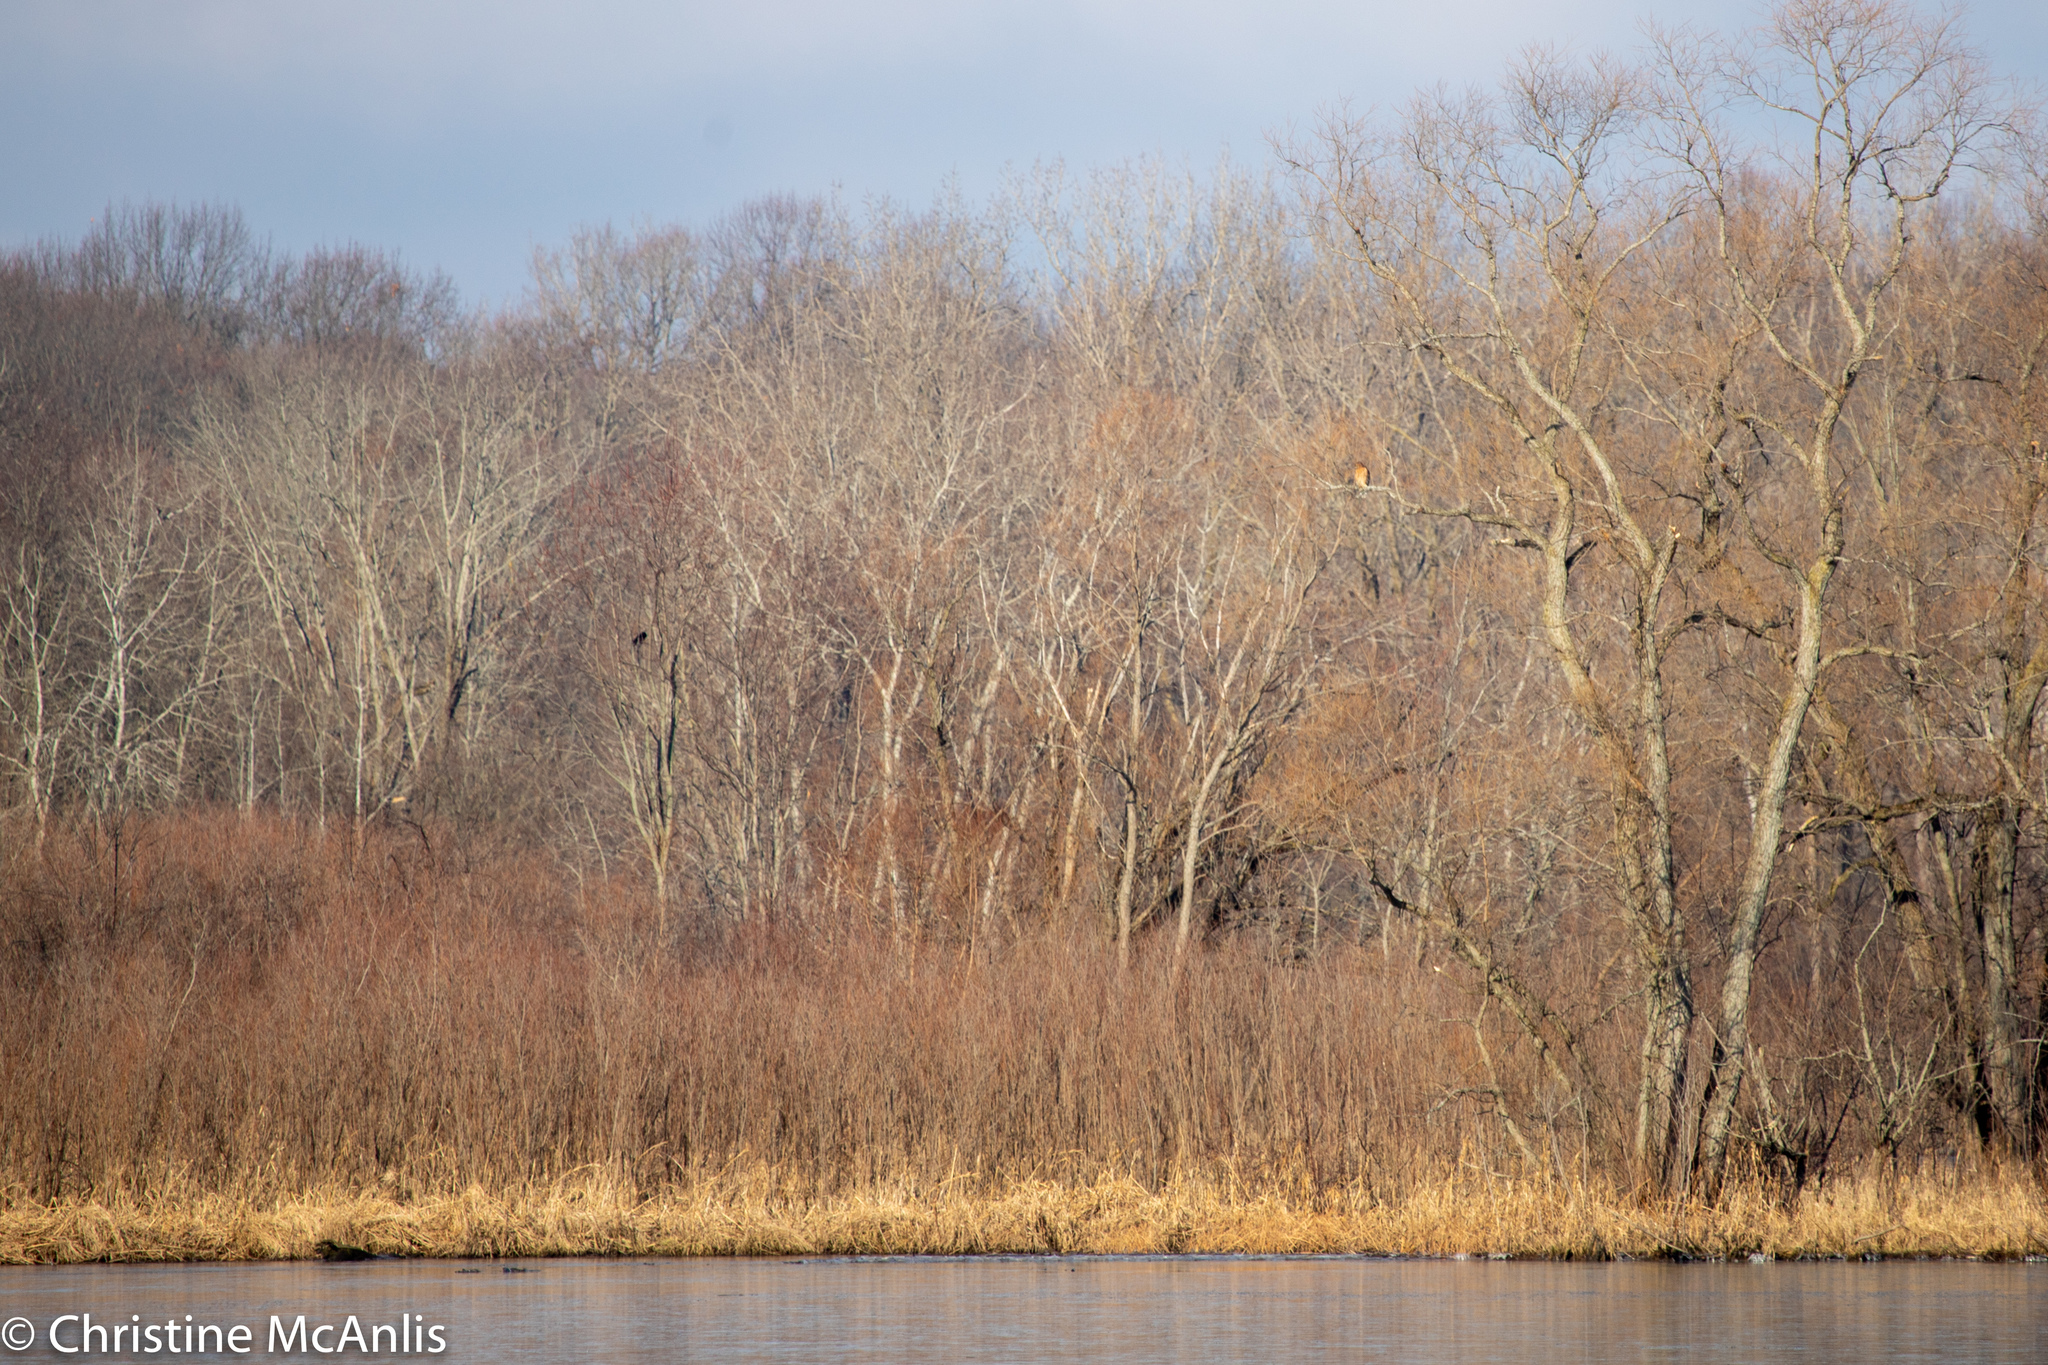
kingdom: Animalia
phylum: Chordata
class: Aves
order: Accipitriformes
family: Accipitridae
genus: Buteo
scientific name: Buteo lineatus
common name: Red-shouldered hawk
